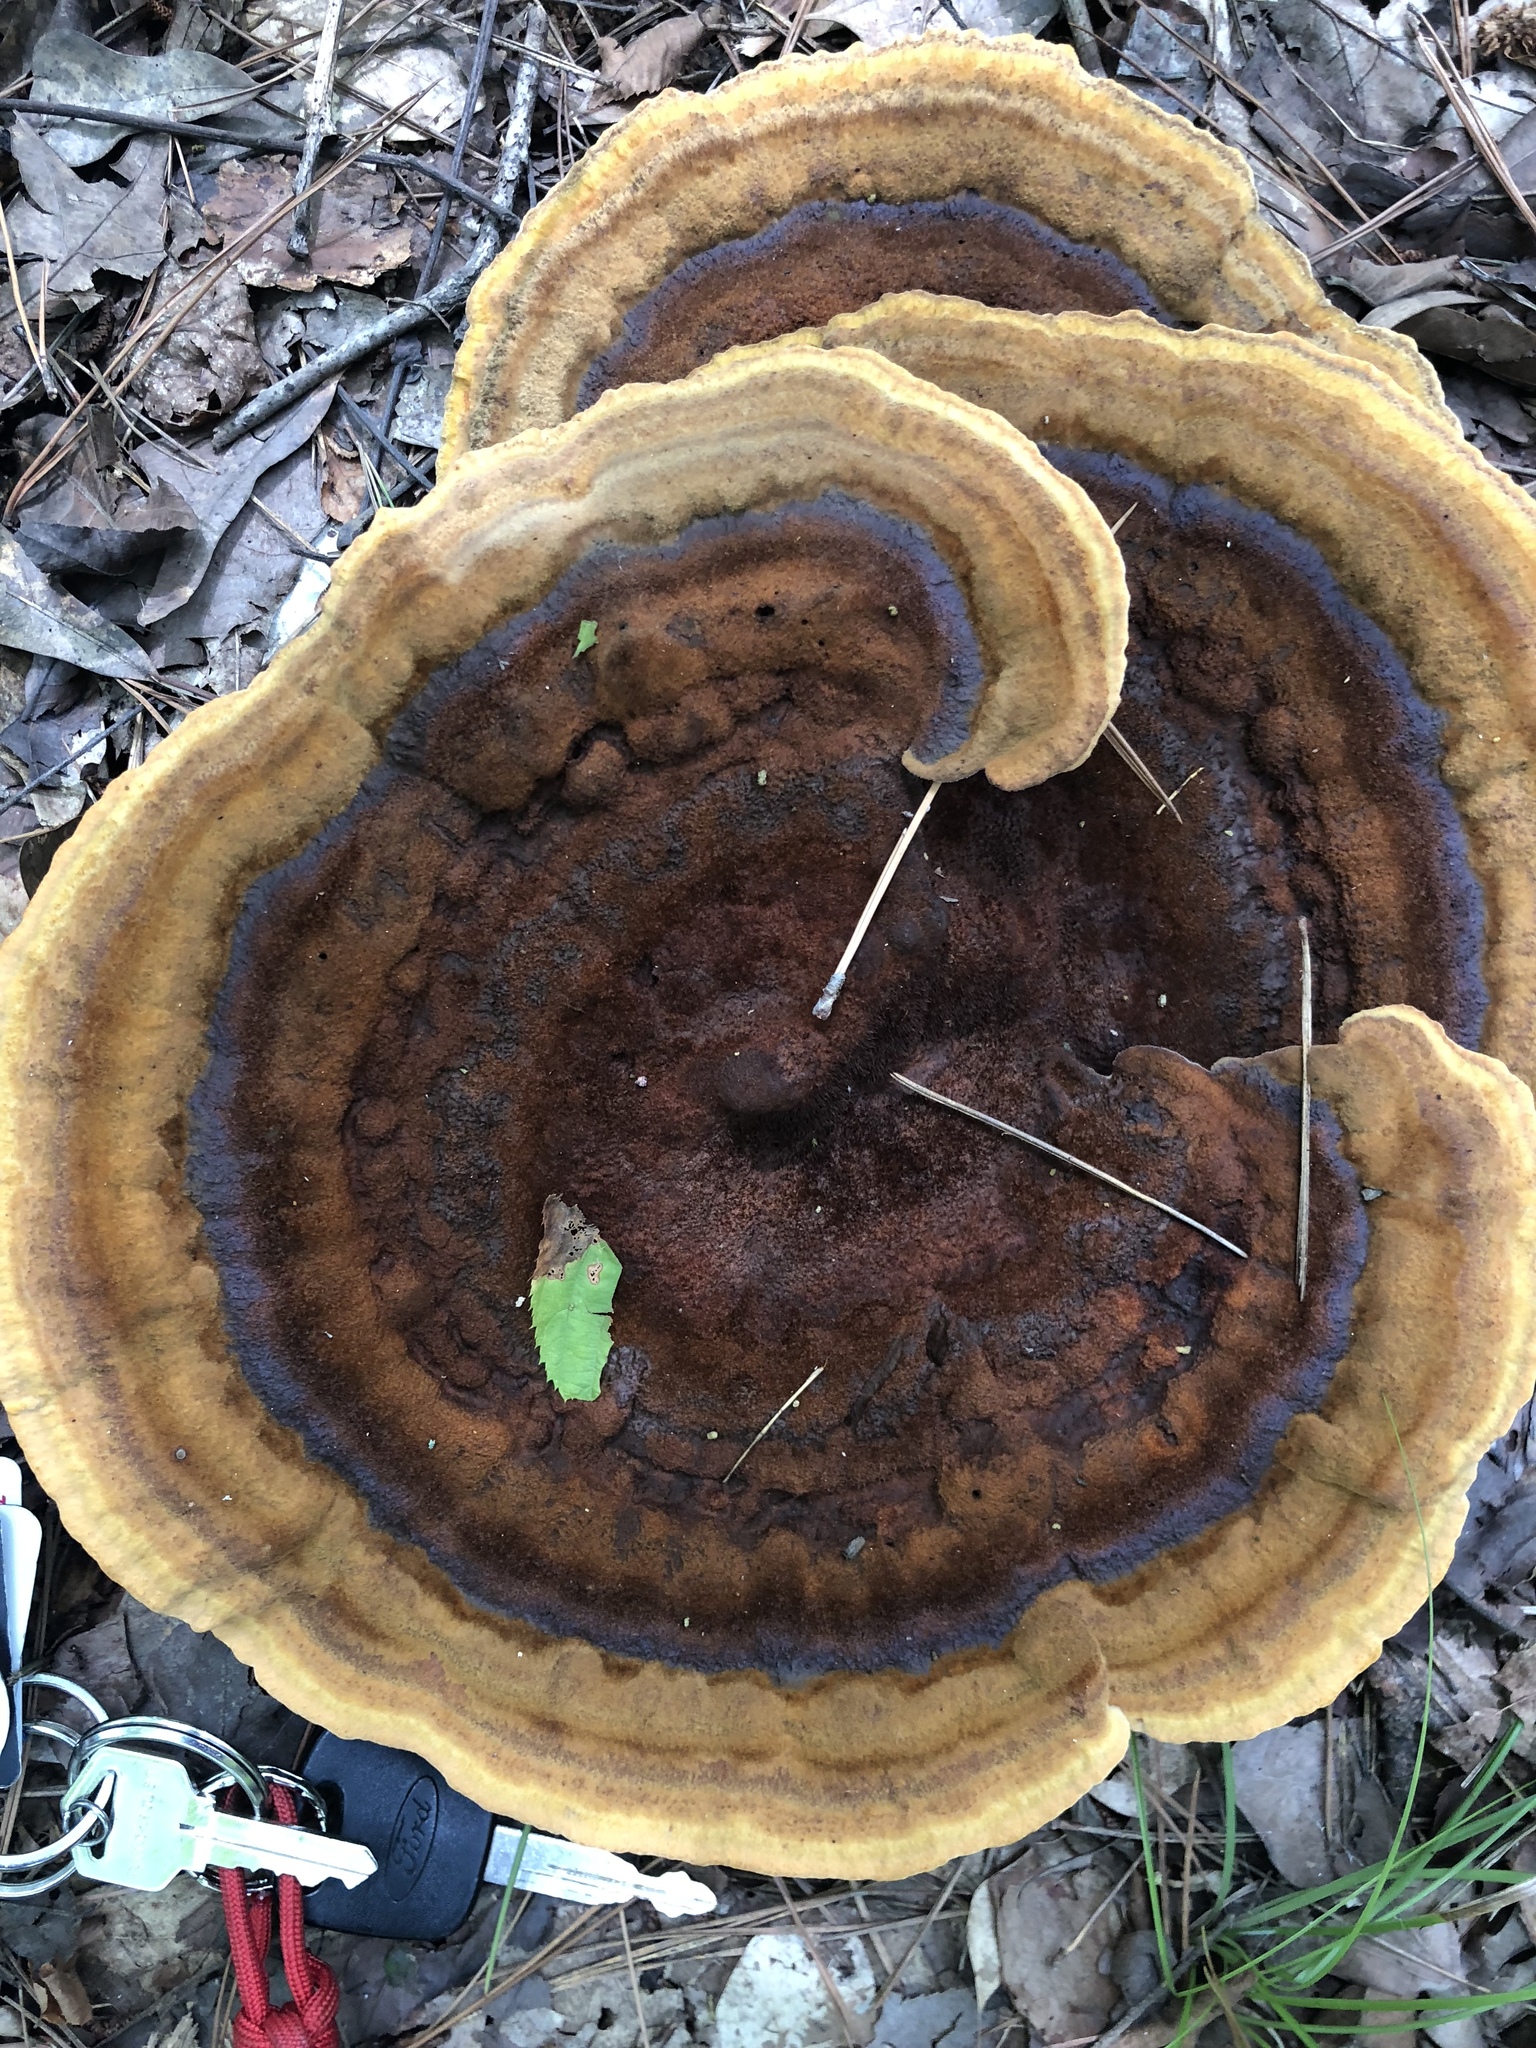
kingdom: Fungi
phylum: Basidiomycota
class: Agaricomycetes
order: Polyporales
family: Laetiporaceae
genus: Phaeolus
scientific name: Phaeolus schweinitzii
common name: Dyer's mazegill
